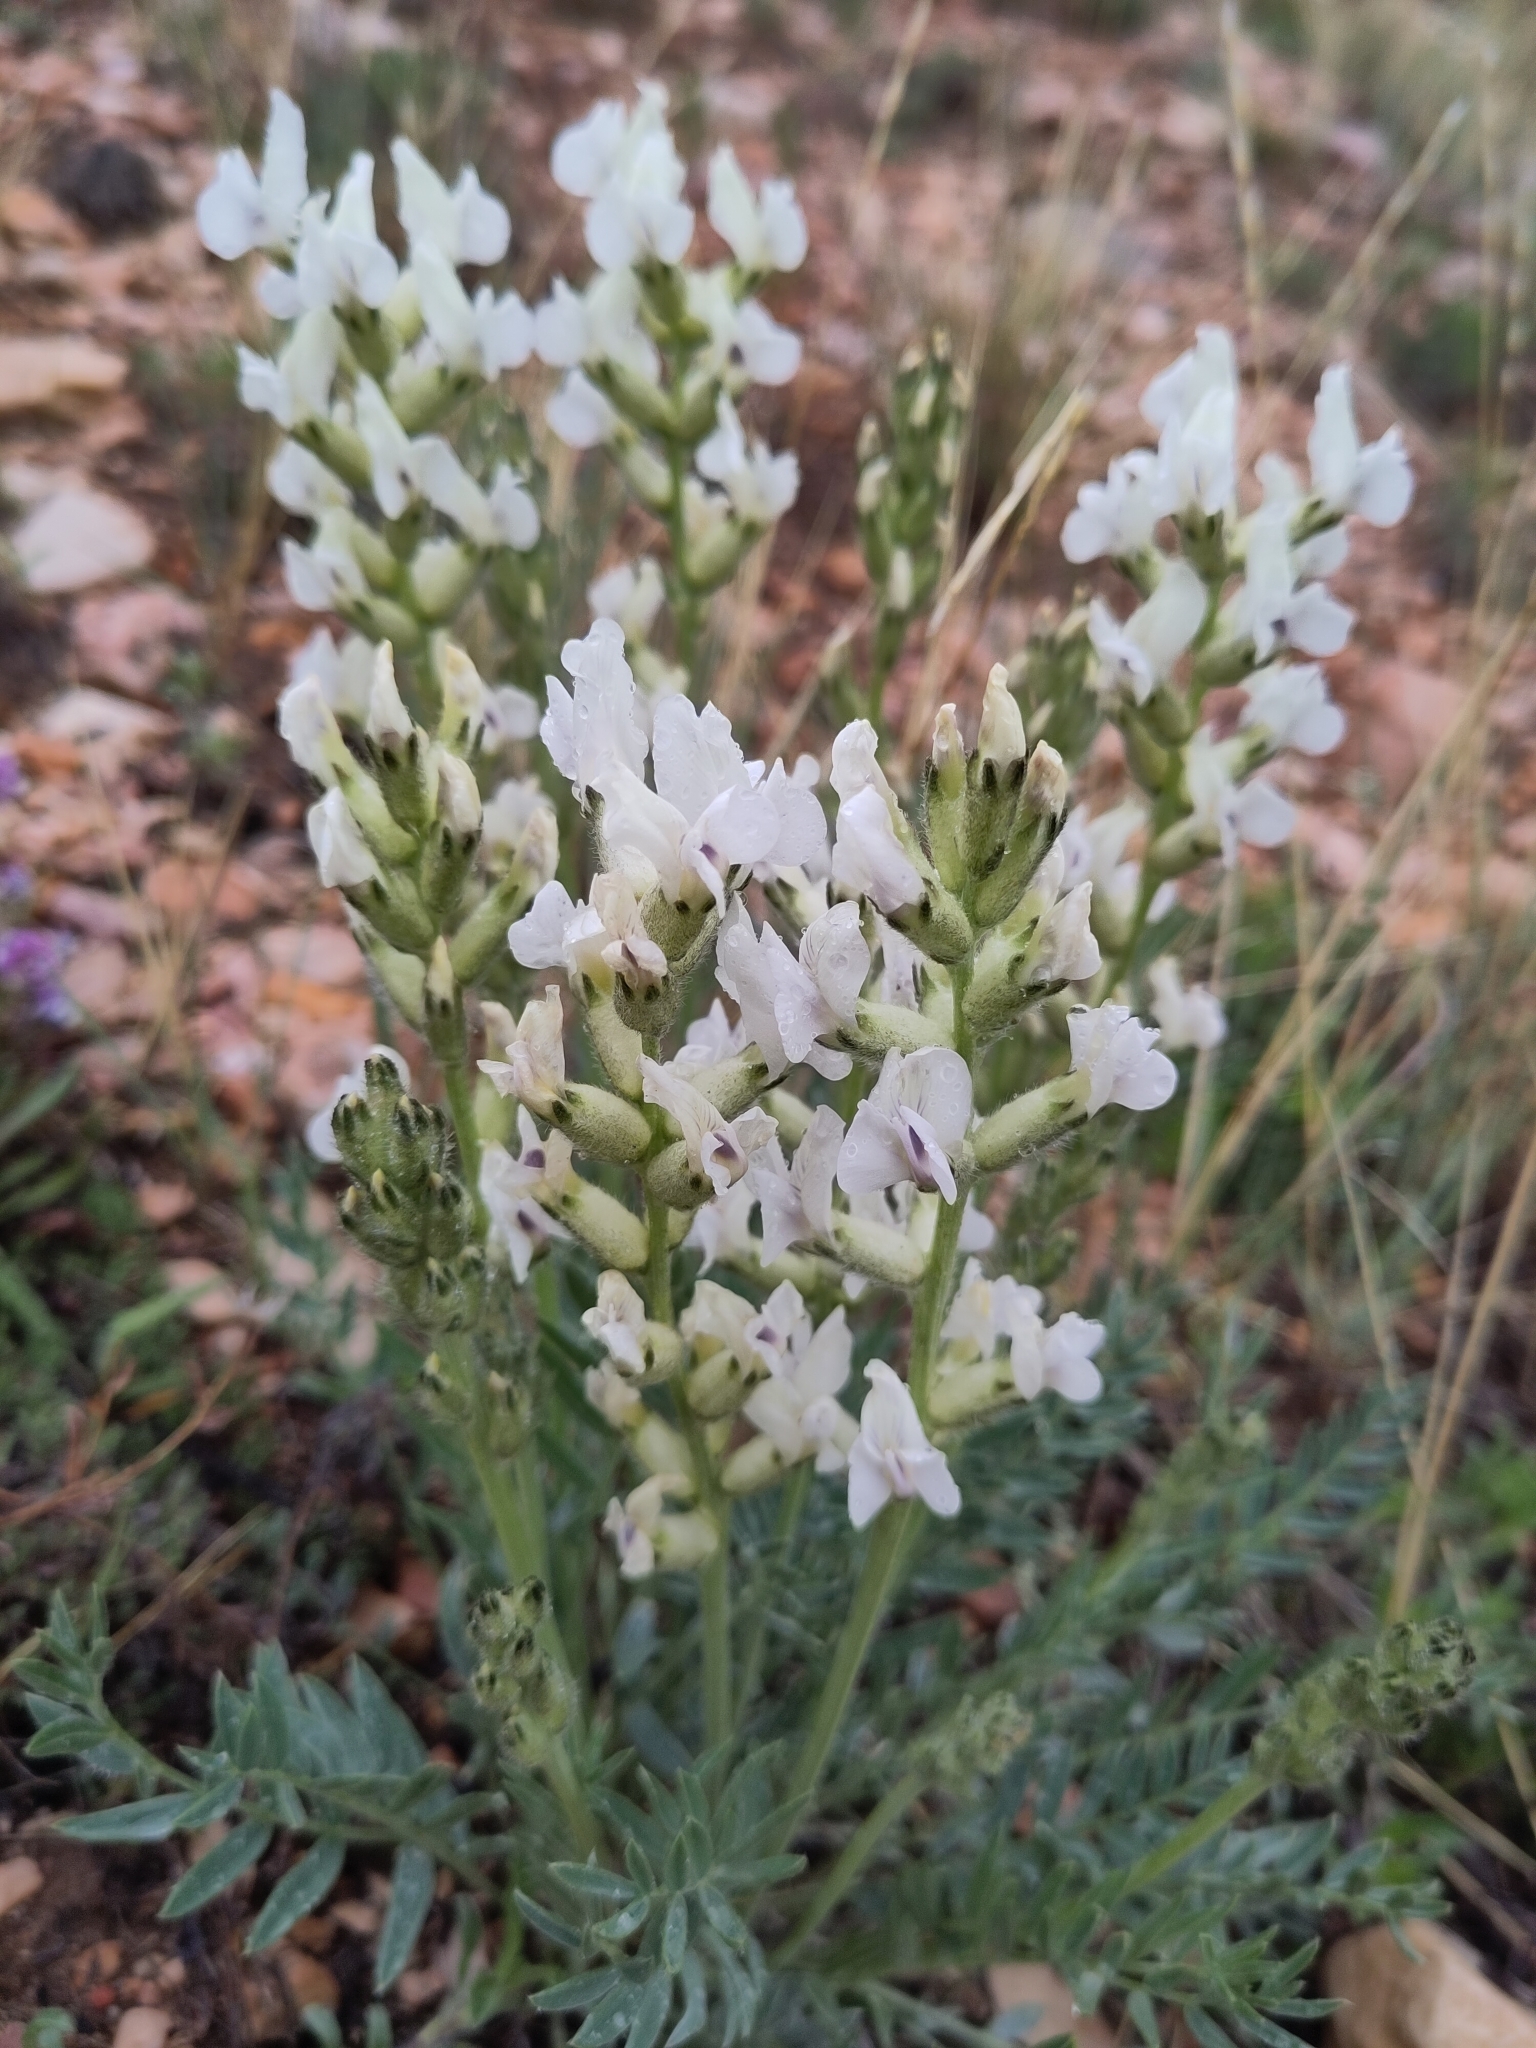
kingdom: Plantae
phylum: Tracheophyta
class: Magnoliopsida
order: Fabales
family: Fabaceae
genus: Oxytropis
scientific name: Oxytropis sericea
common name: Silky locoweed
